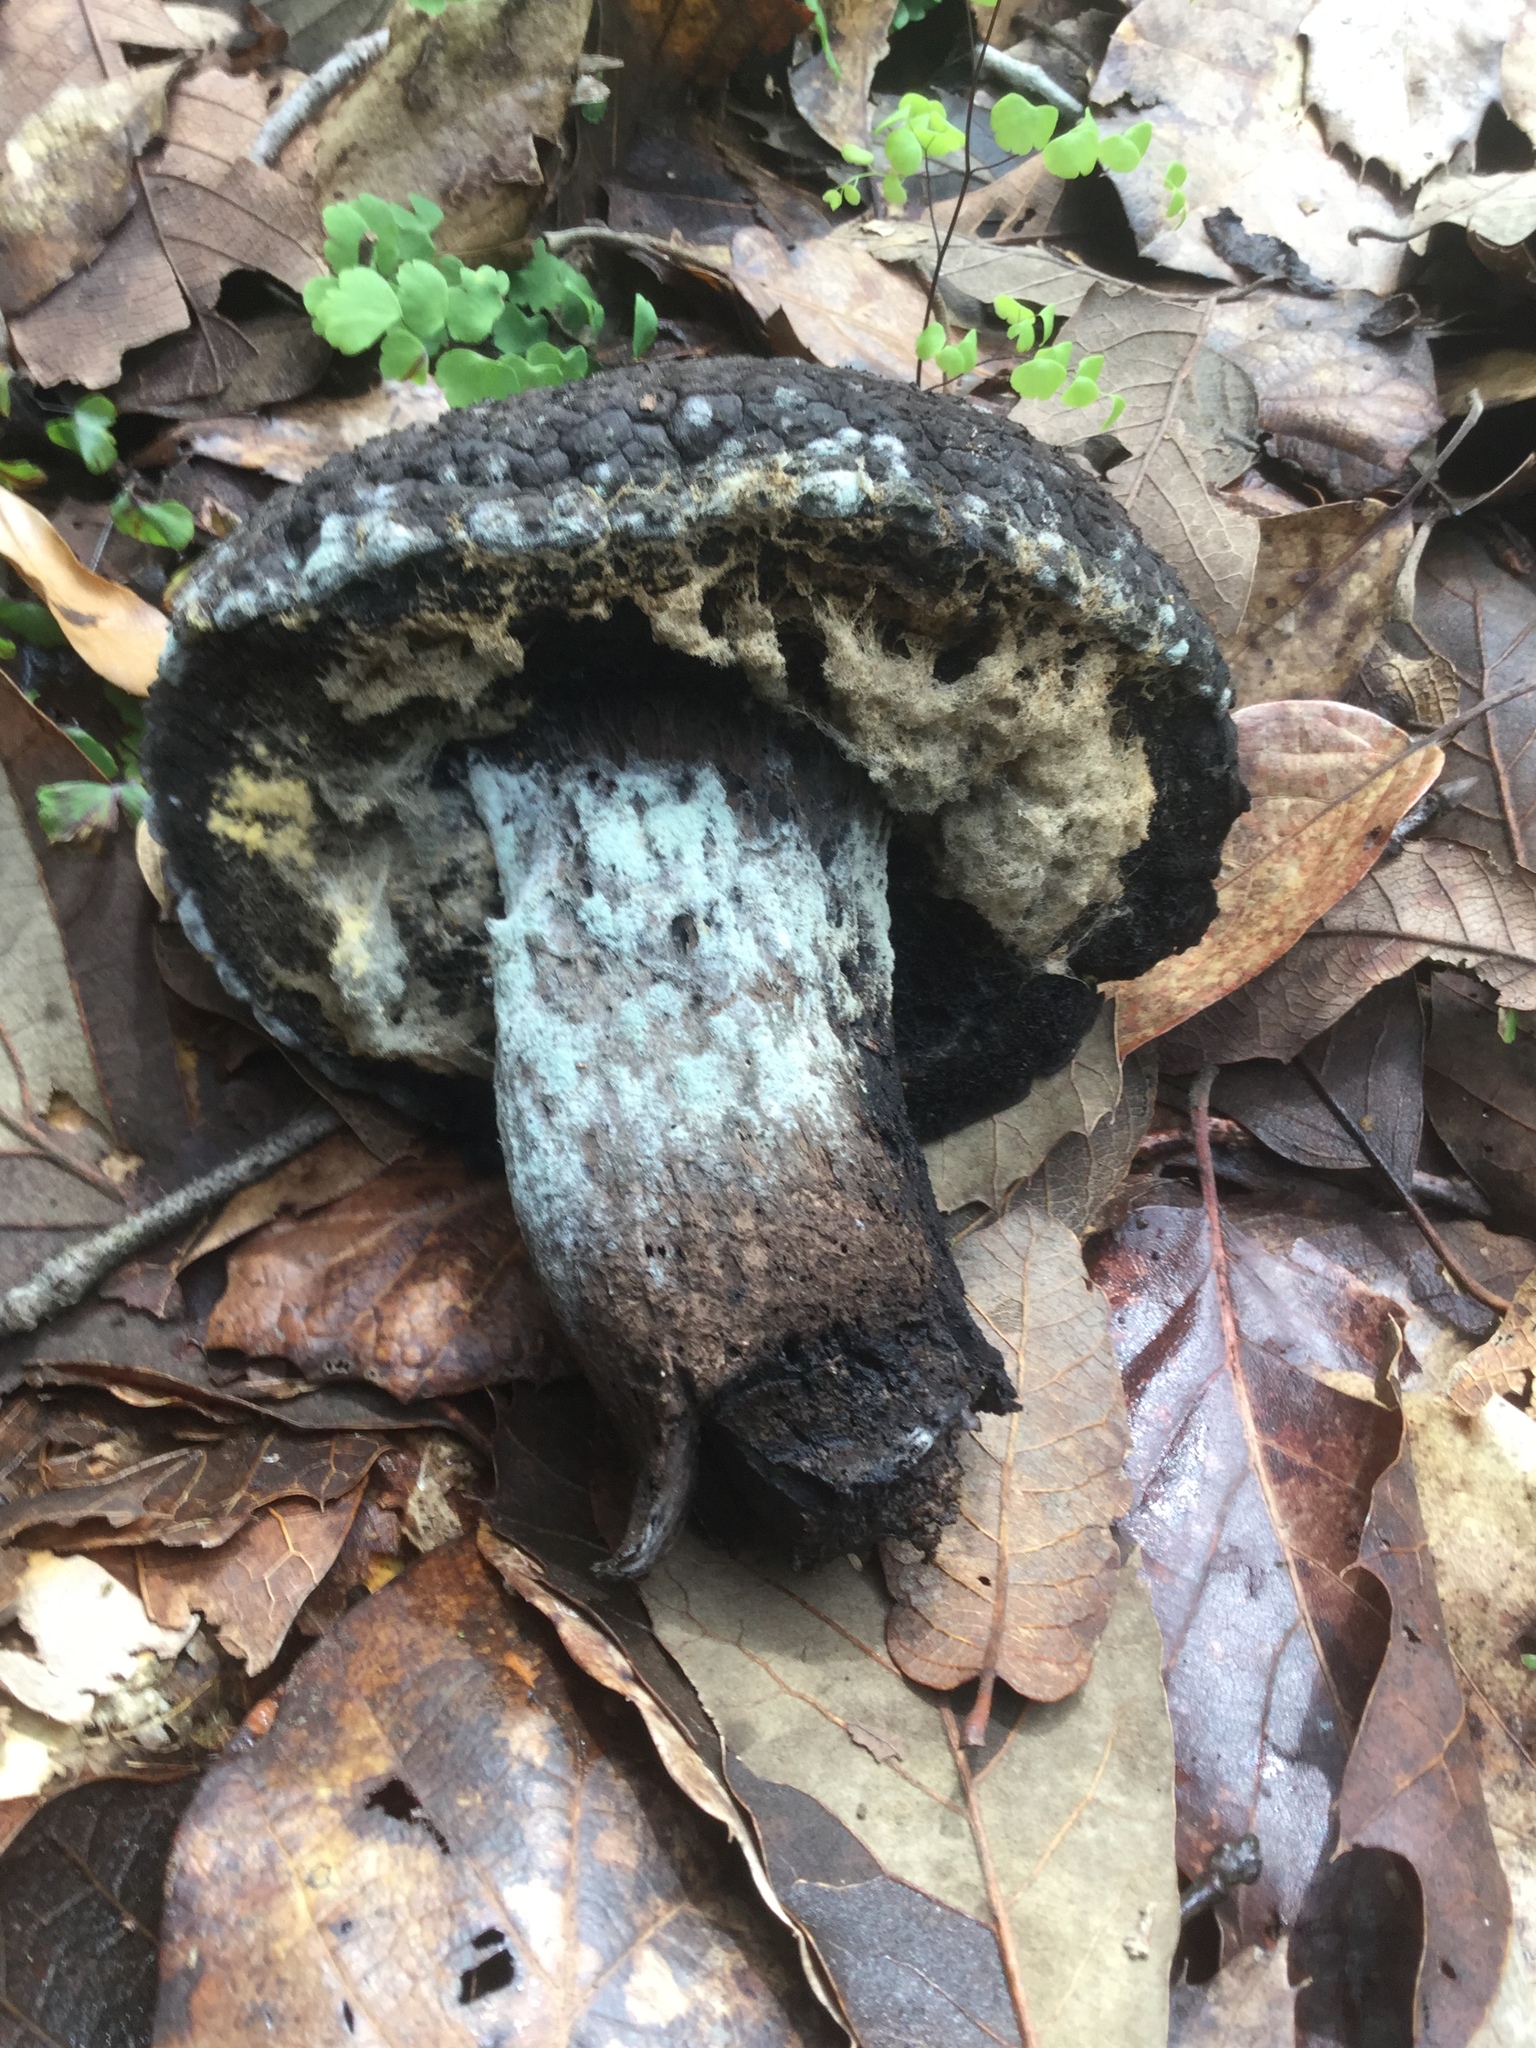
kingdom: Fungi
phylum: Mucoromycota
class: Mucoromycetes
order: Mucorales
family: Rhizopodaceae
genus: Syzygites
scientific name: Syzygites megalocarpus
